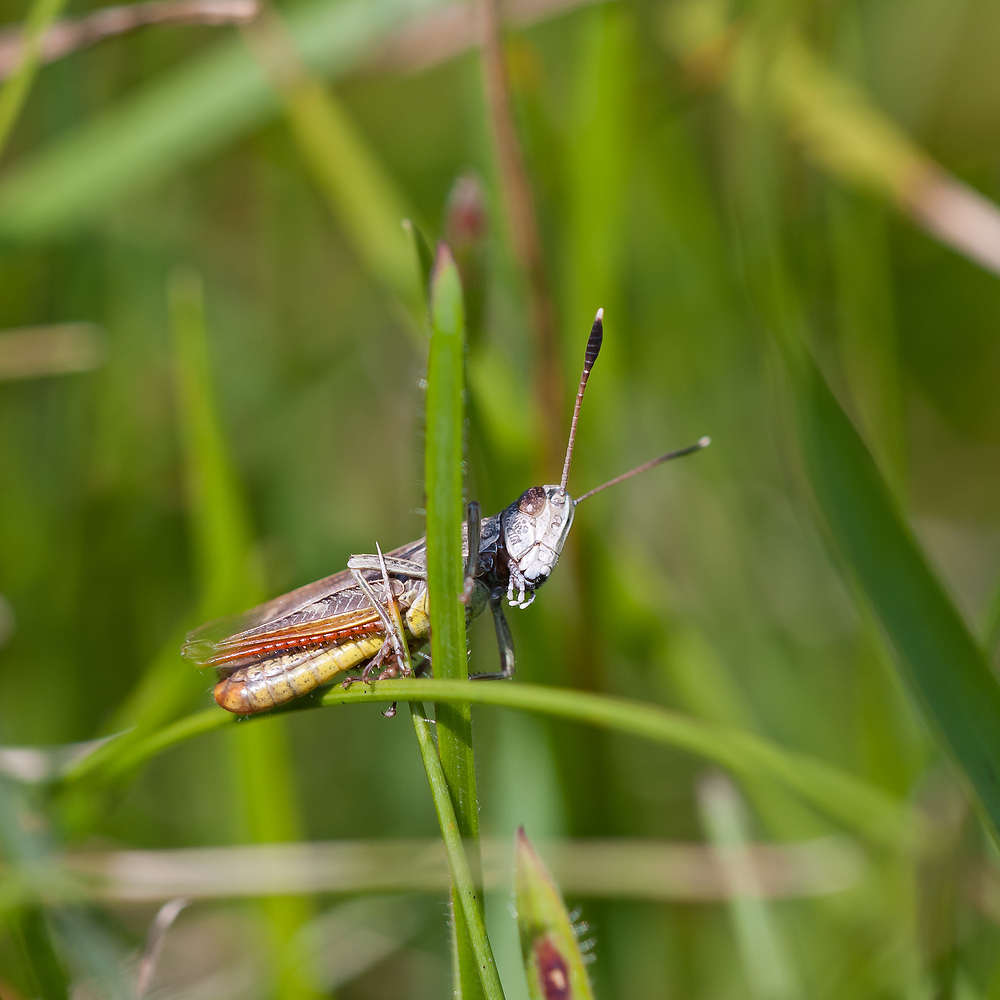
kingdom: Animalia
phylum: Arthropoda
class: Insecta
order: Orthoptera
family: Acrididae
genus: Gomphocerippus
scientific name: Gomphocerippus rufus
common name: Rufous grasshopper
